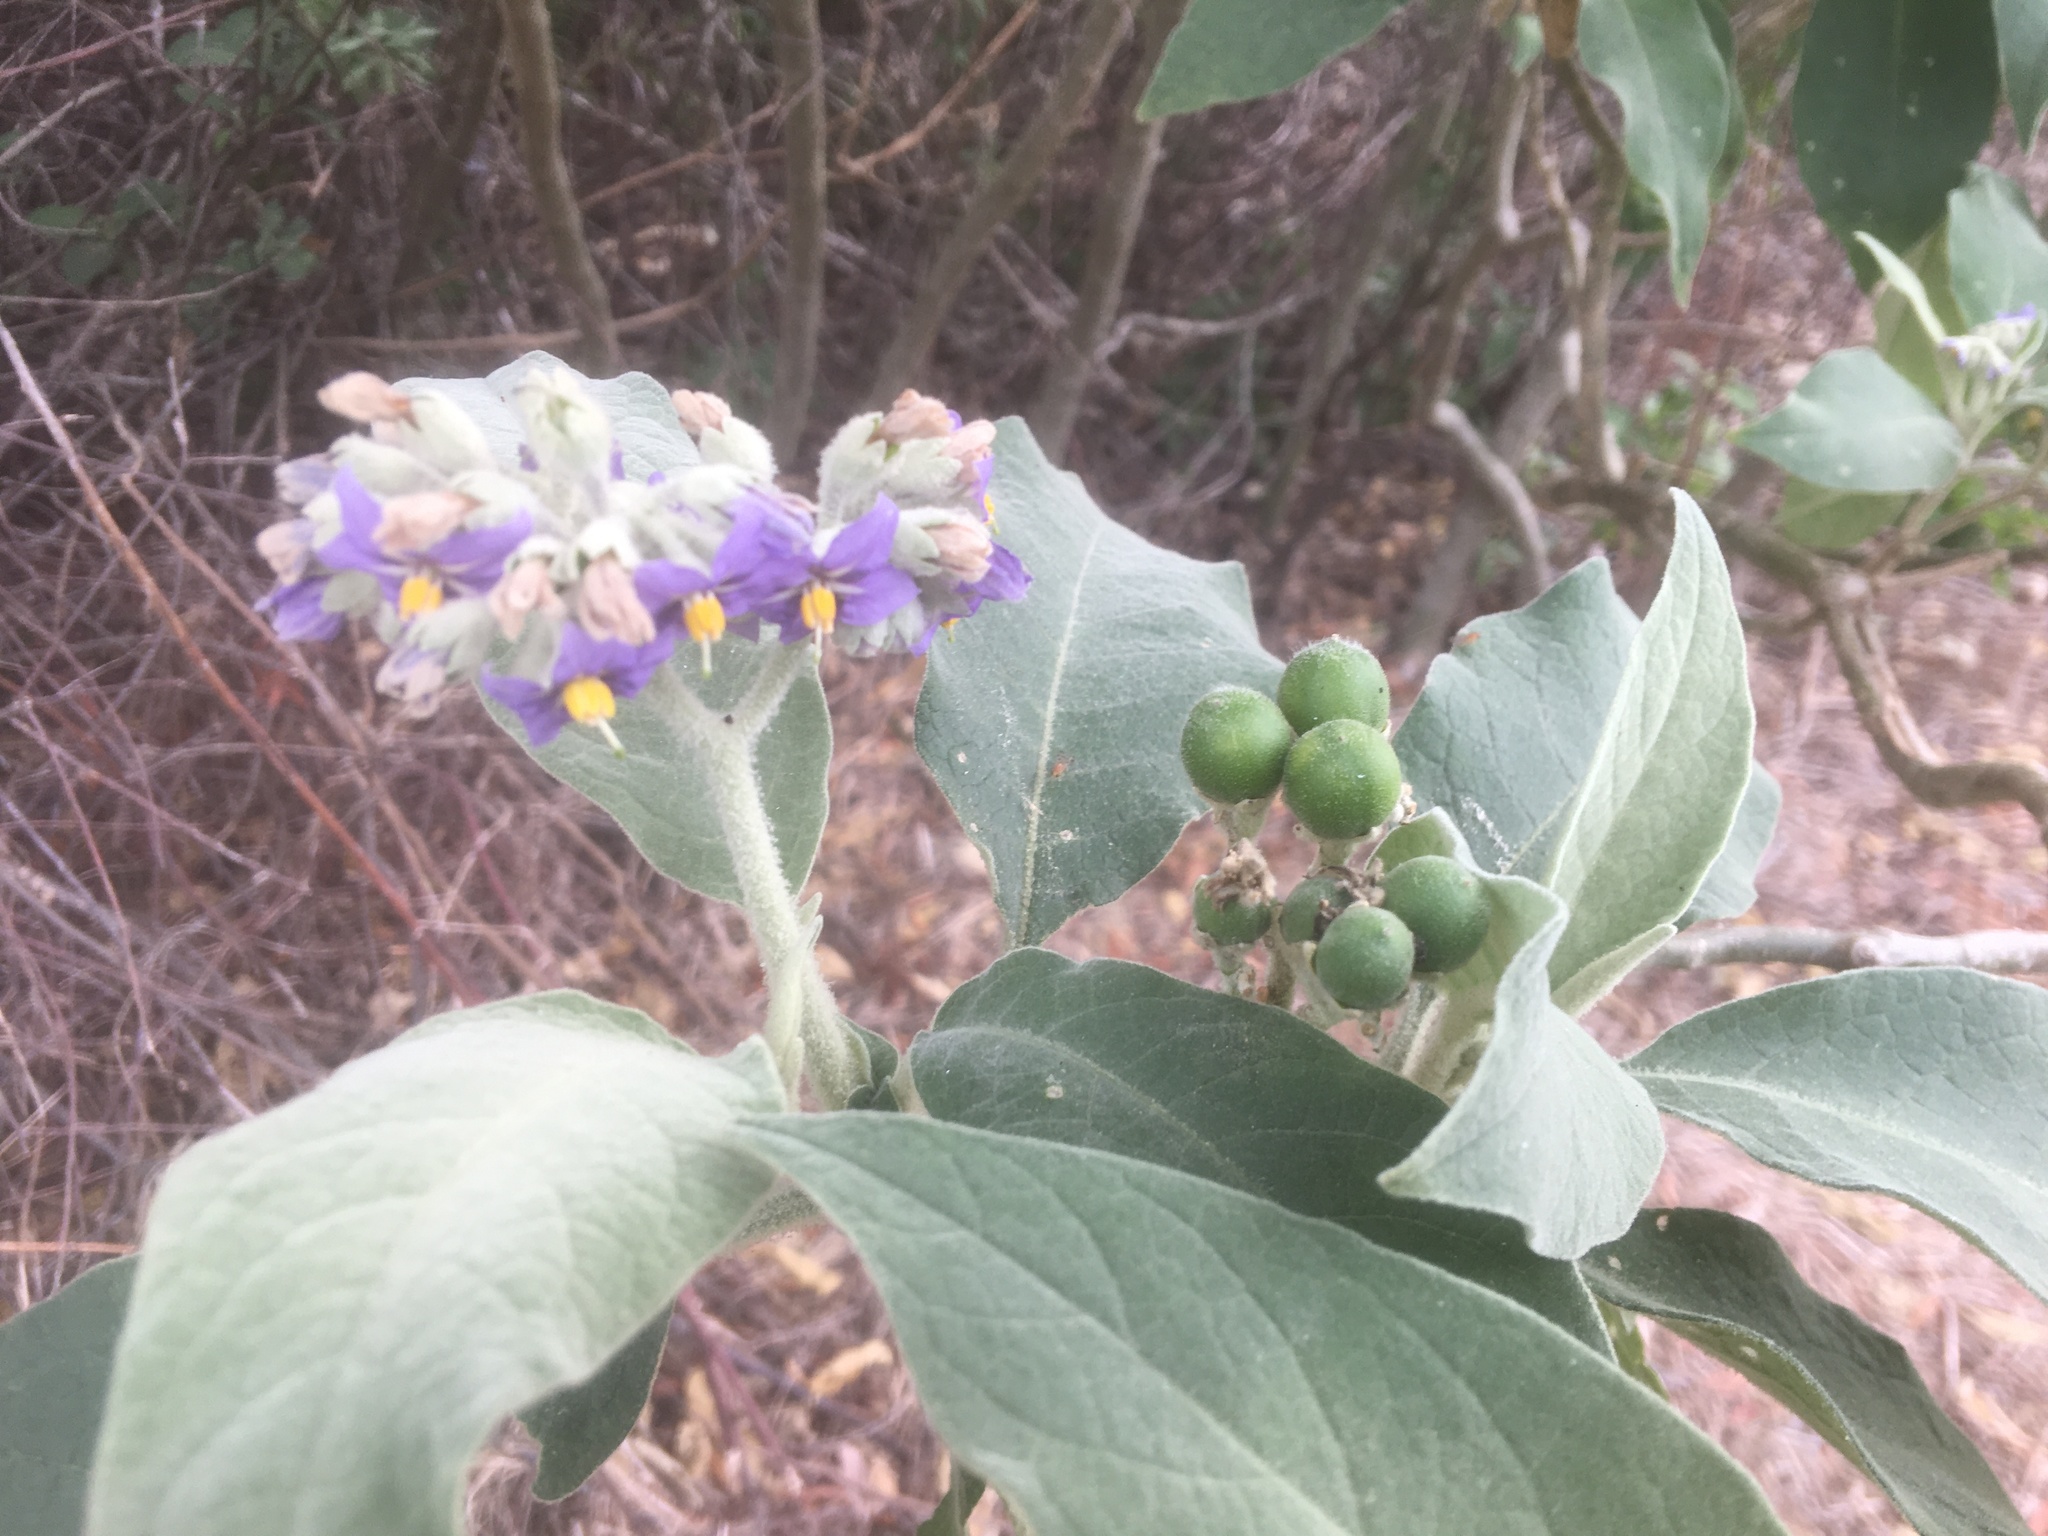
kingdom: Plantae
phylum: Tracheophyta
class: Magnoliopsida
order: Solanales
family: Solanaceae
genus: Solanum
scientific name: Solanum mauritianum
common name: Earleaf nightshade
